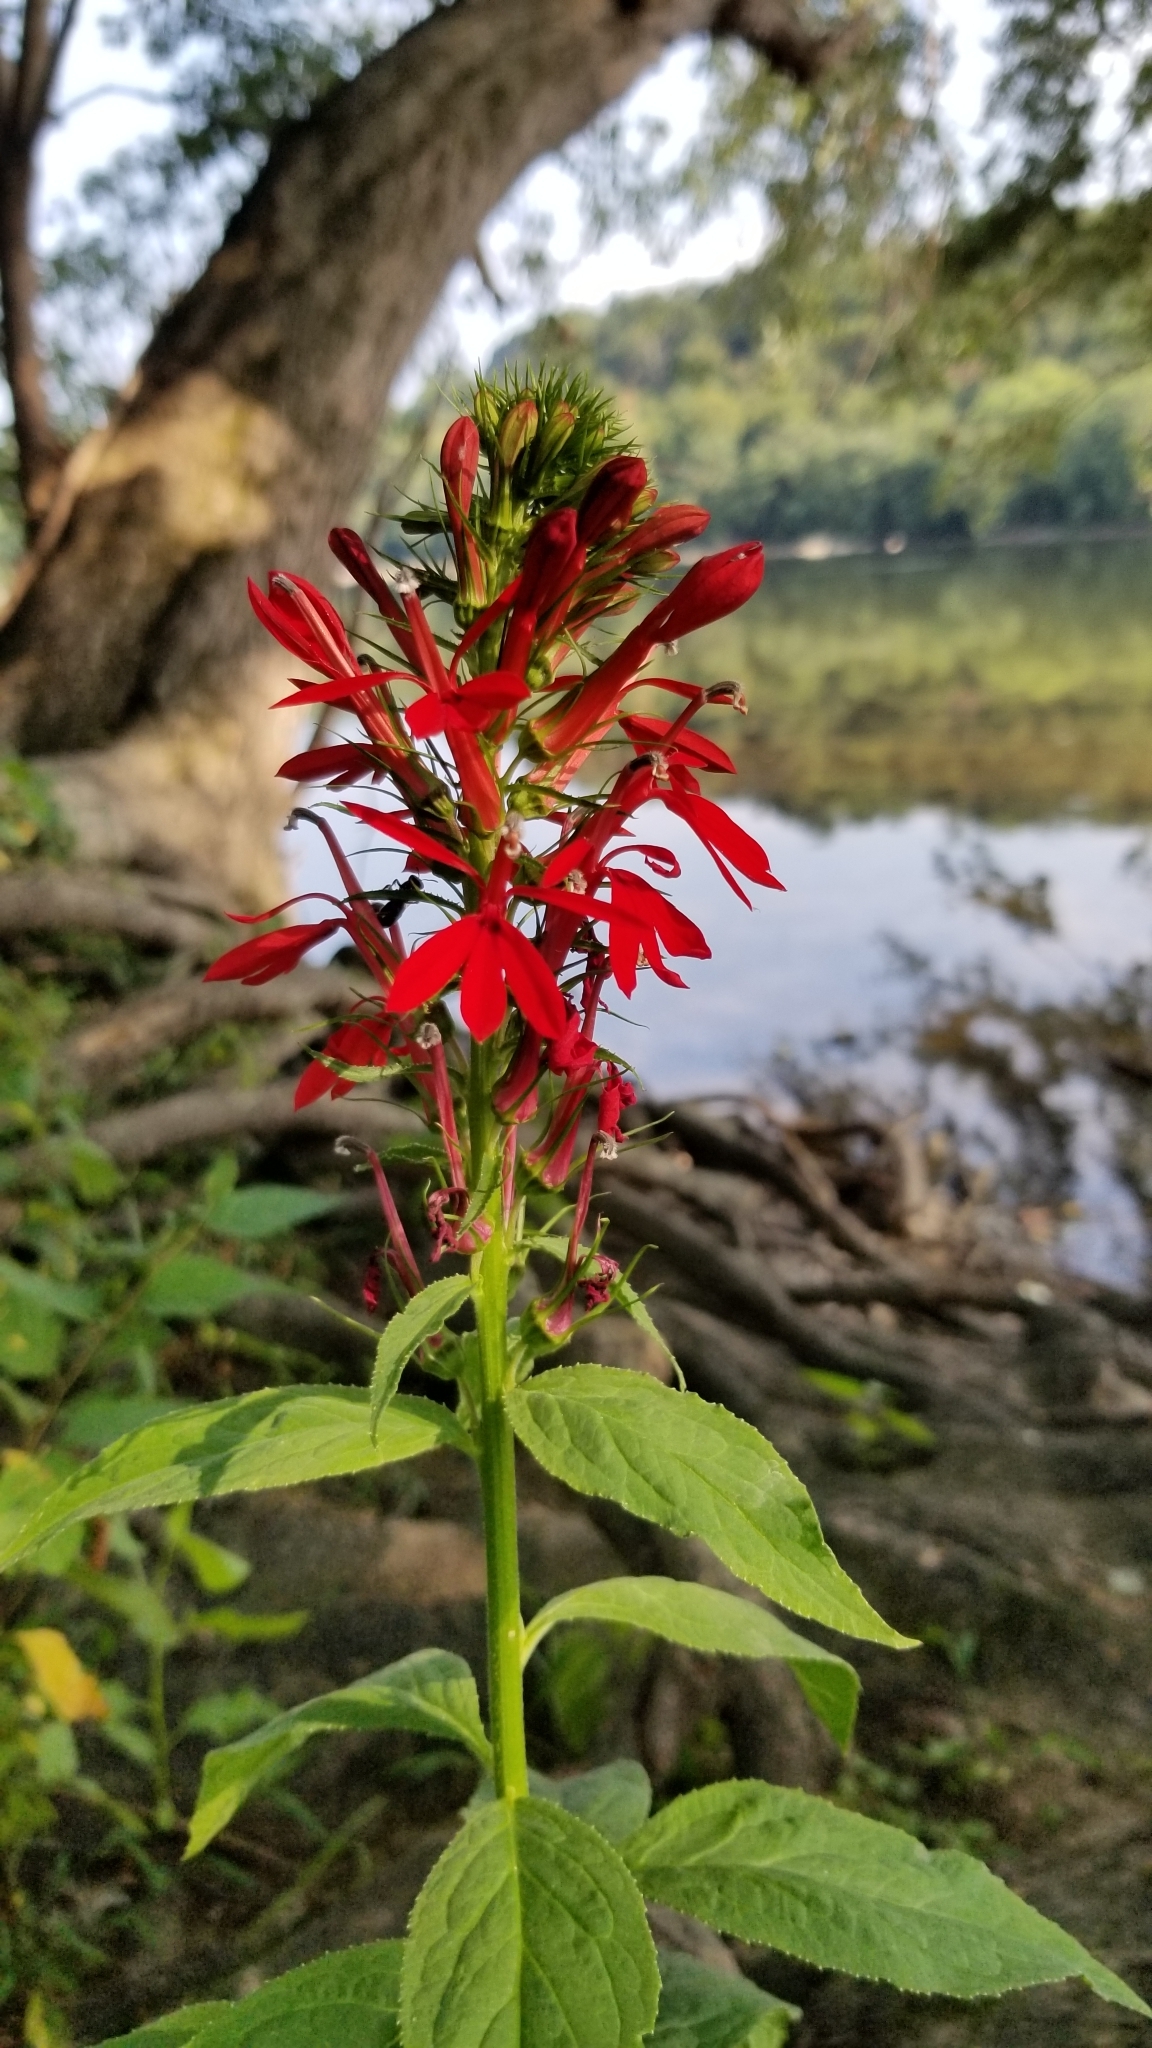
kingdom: Plantae
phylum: Tracheophyta
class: Magnoliopsida
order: Asterales
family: Campanulaceae
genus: Lobelia
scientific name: Lobelia cardinalis
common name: Cardinal flower
